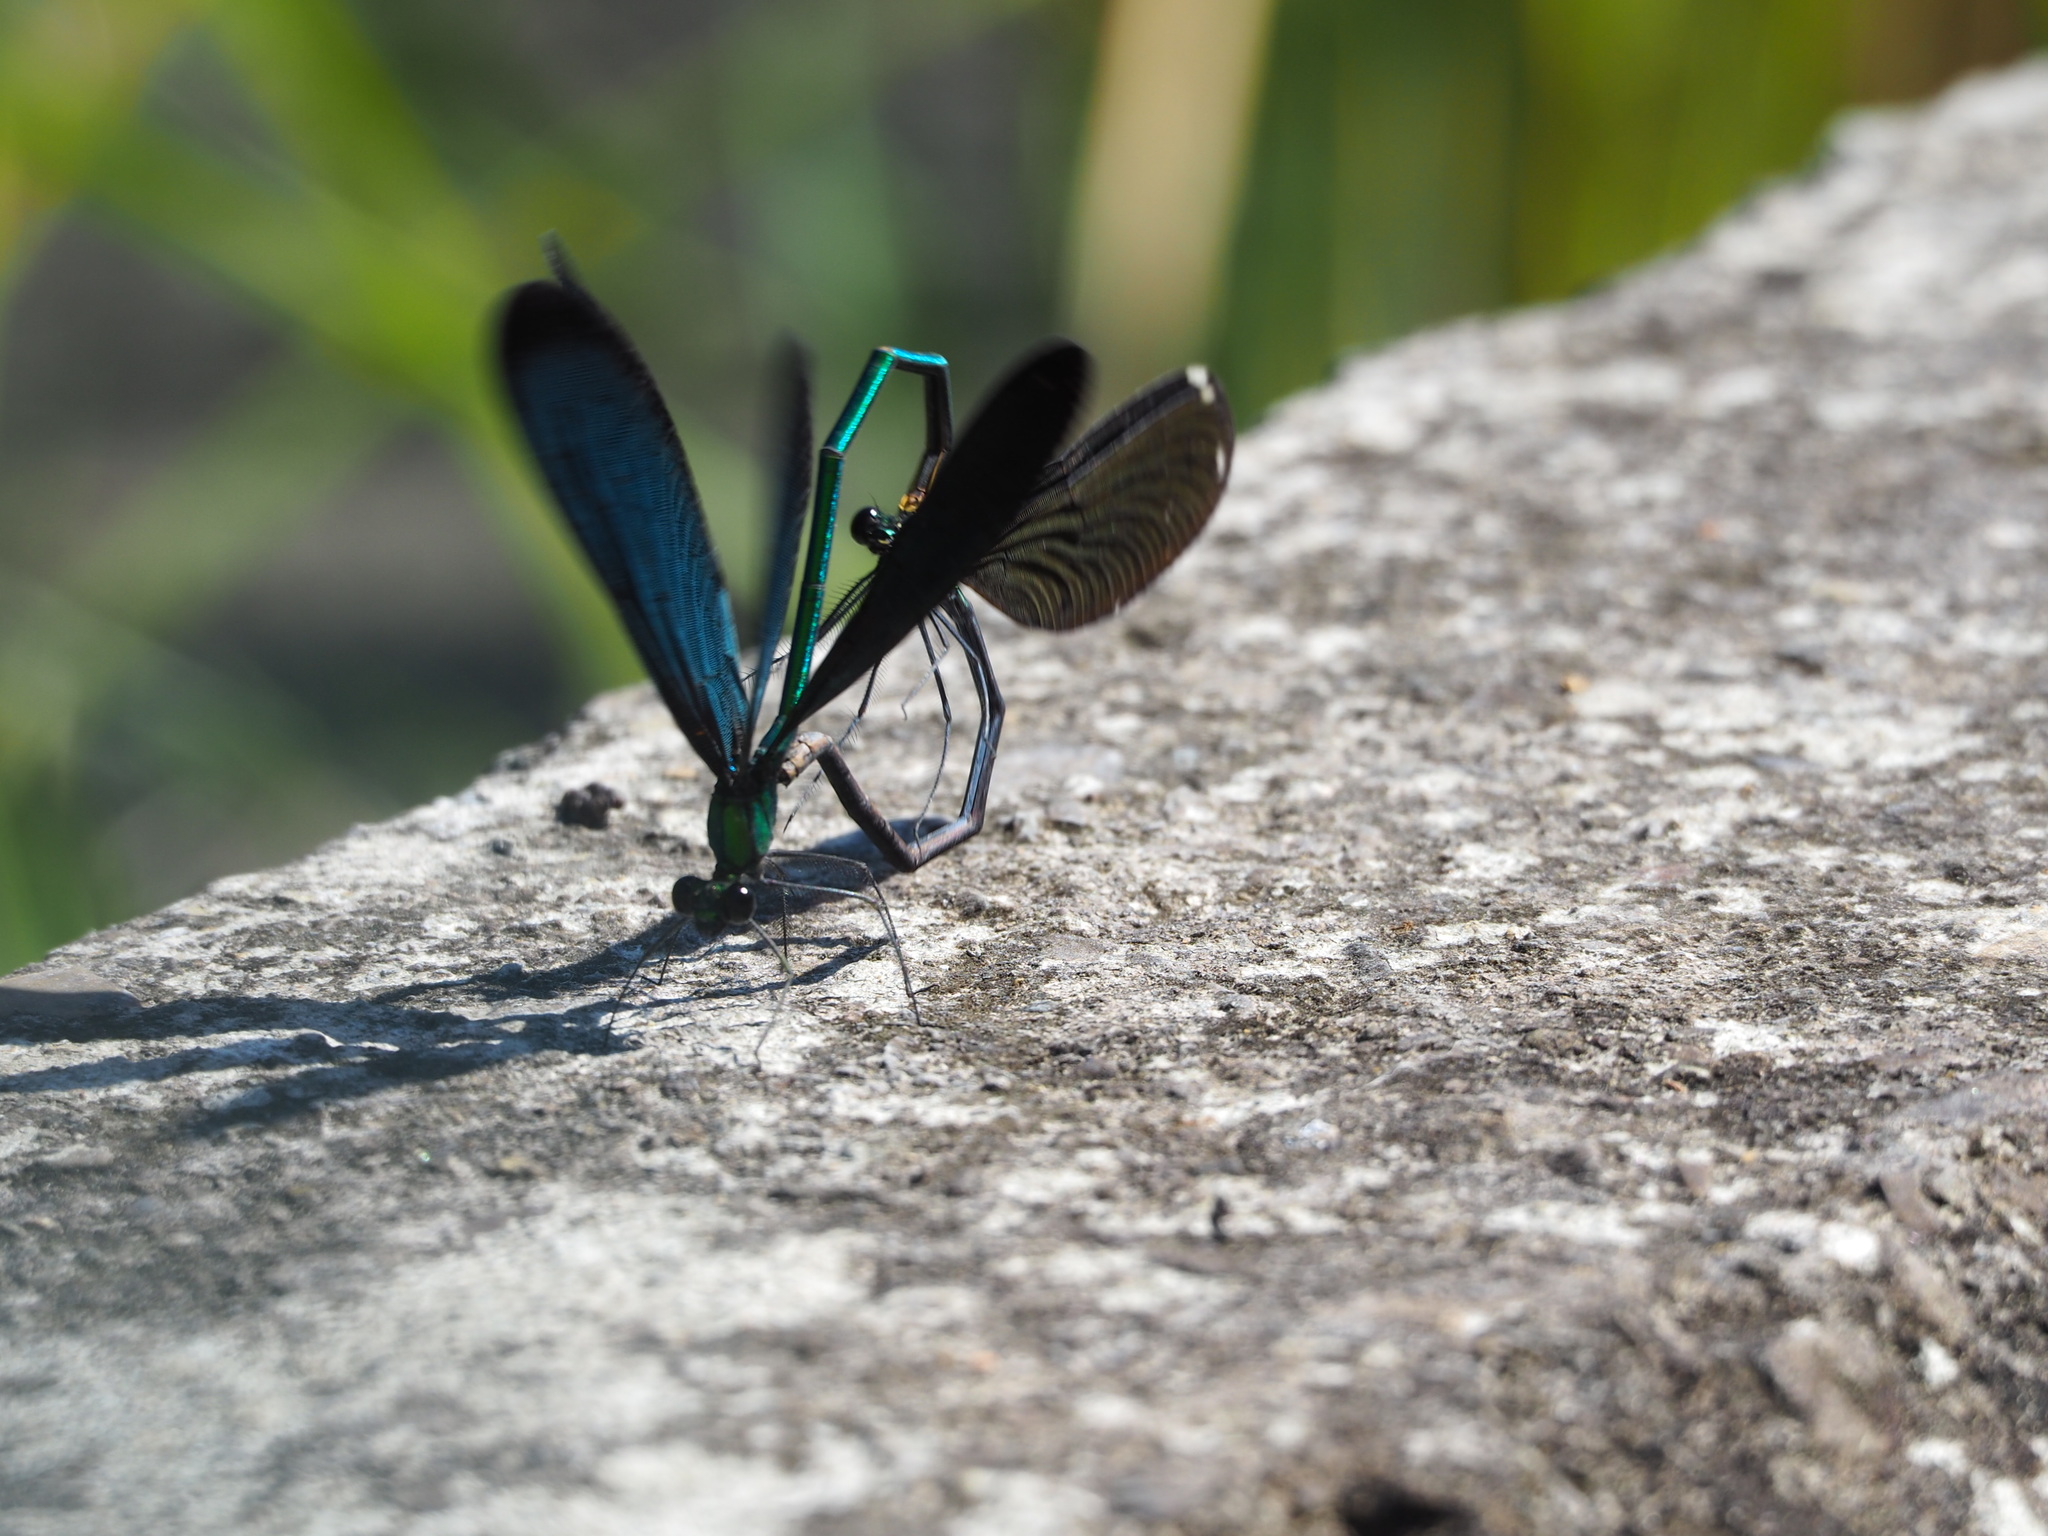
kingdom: Animalia
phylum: Arthropoda
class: Insecta
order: Odonata
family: Calopterygidae
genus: Matrona
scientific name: Matrona cyanoptera
